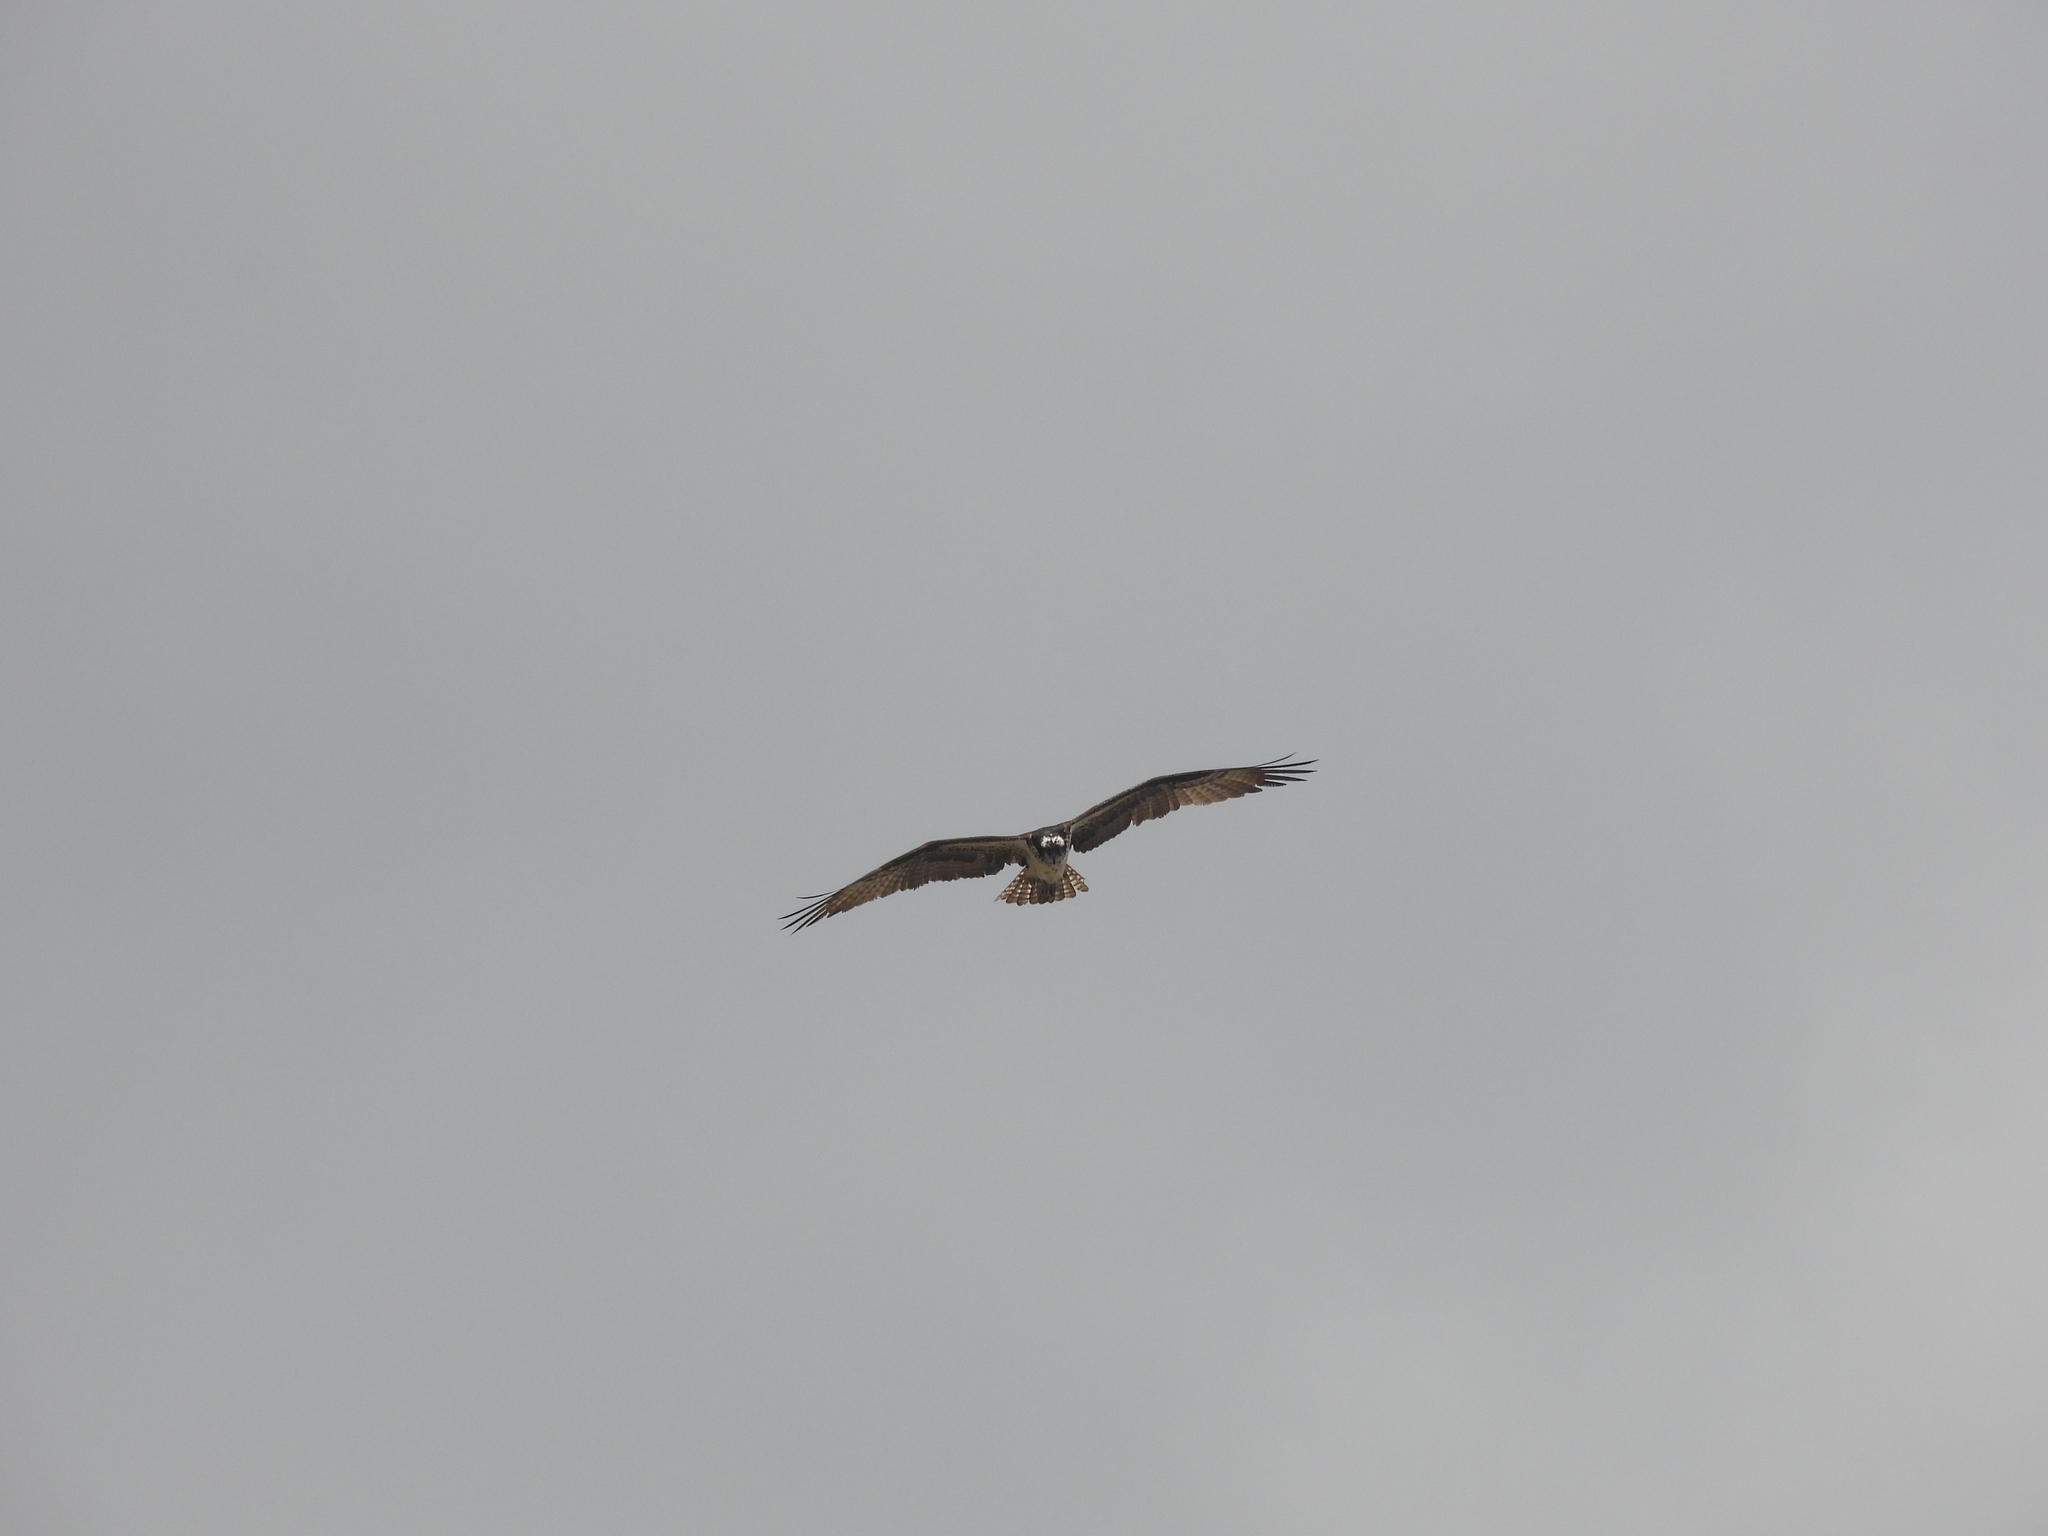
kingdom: Animalia
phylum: Chordata
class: Aves
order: Accipitriformes
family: Pandionidae
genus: Pandion
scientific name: Pandion haliaetus
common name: Osprey
